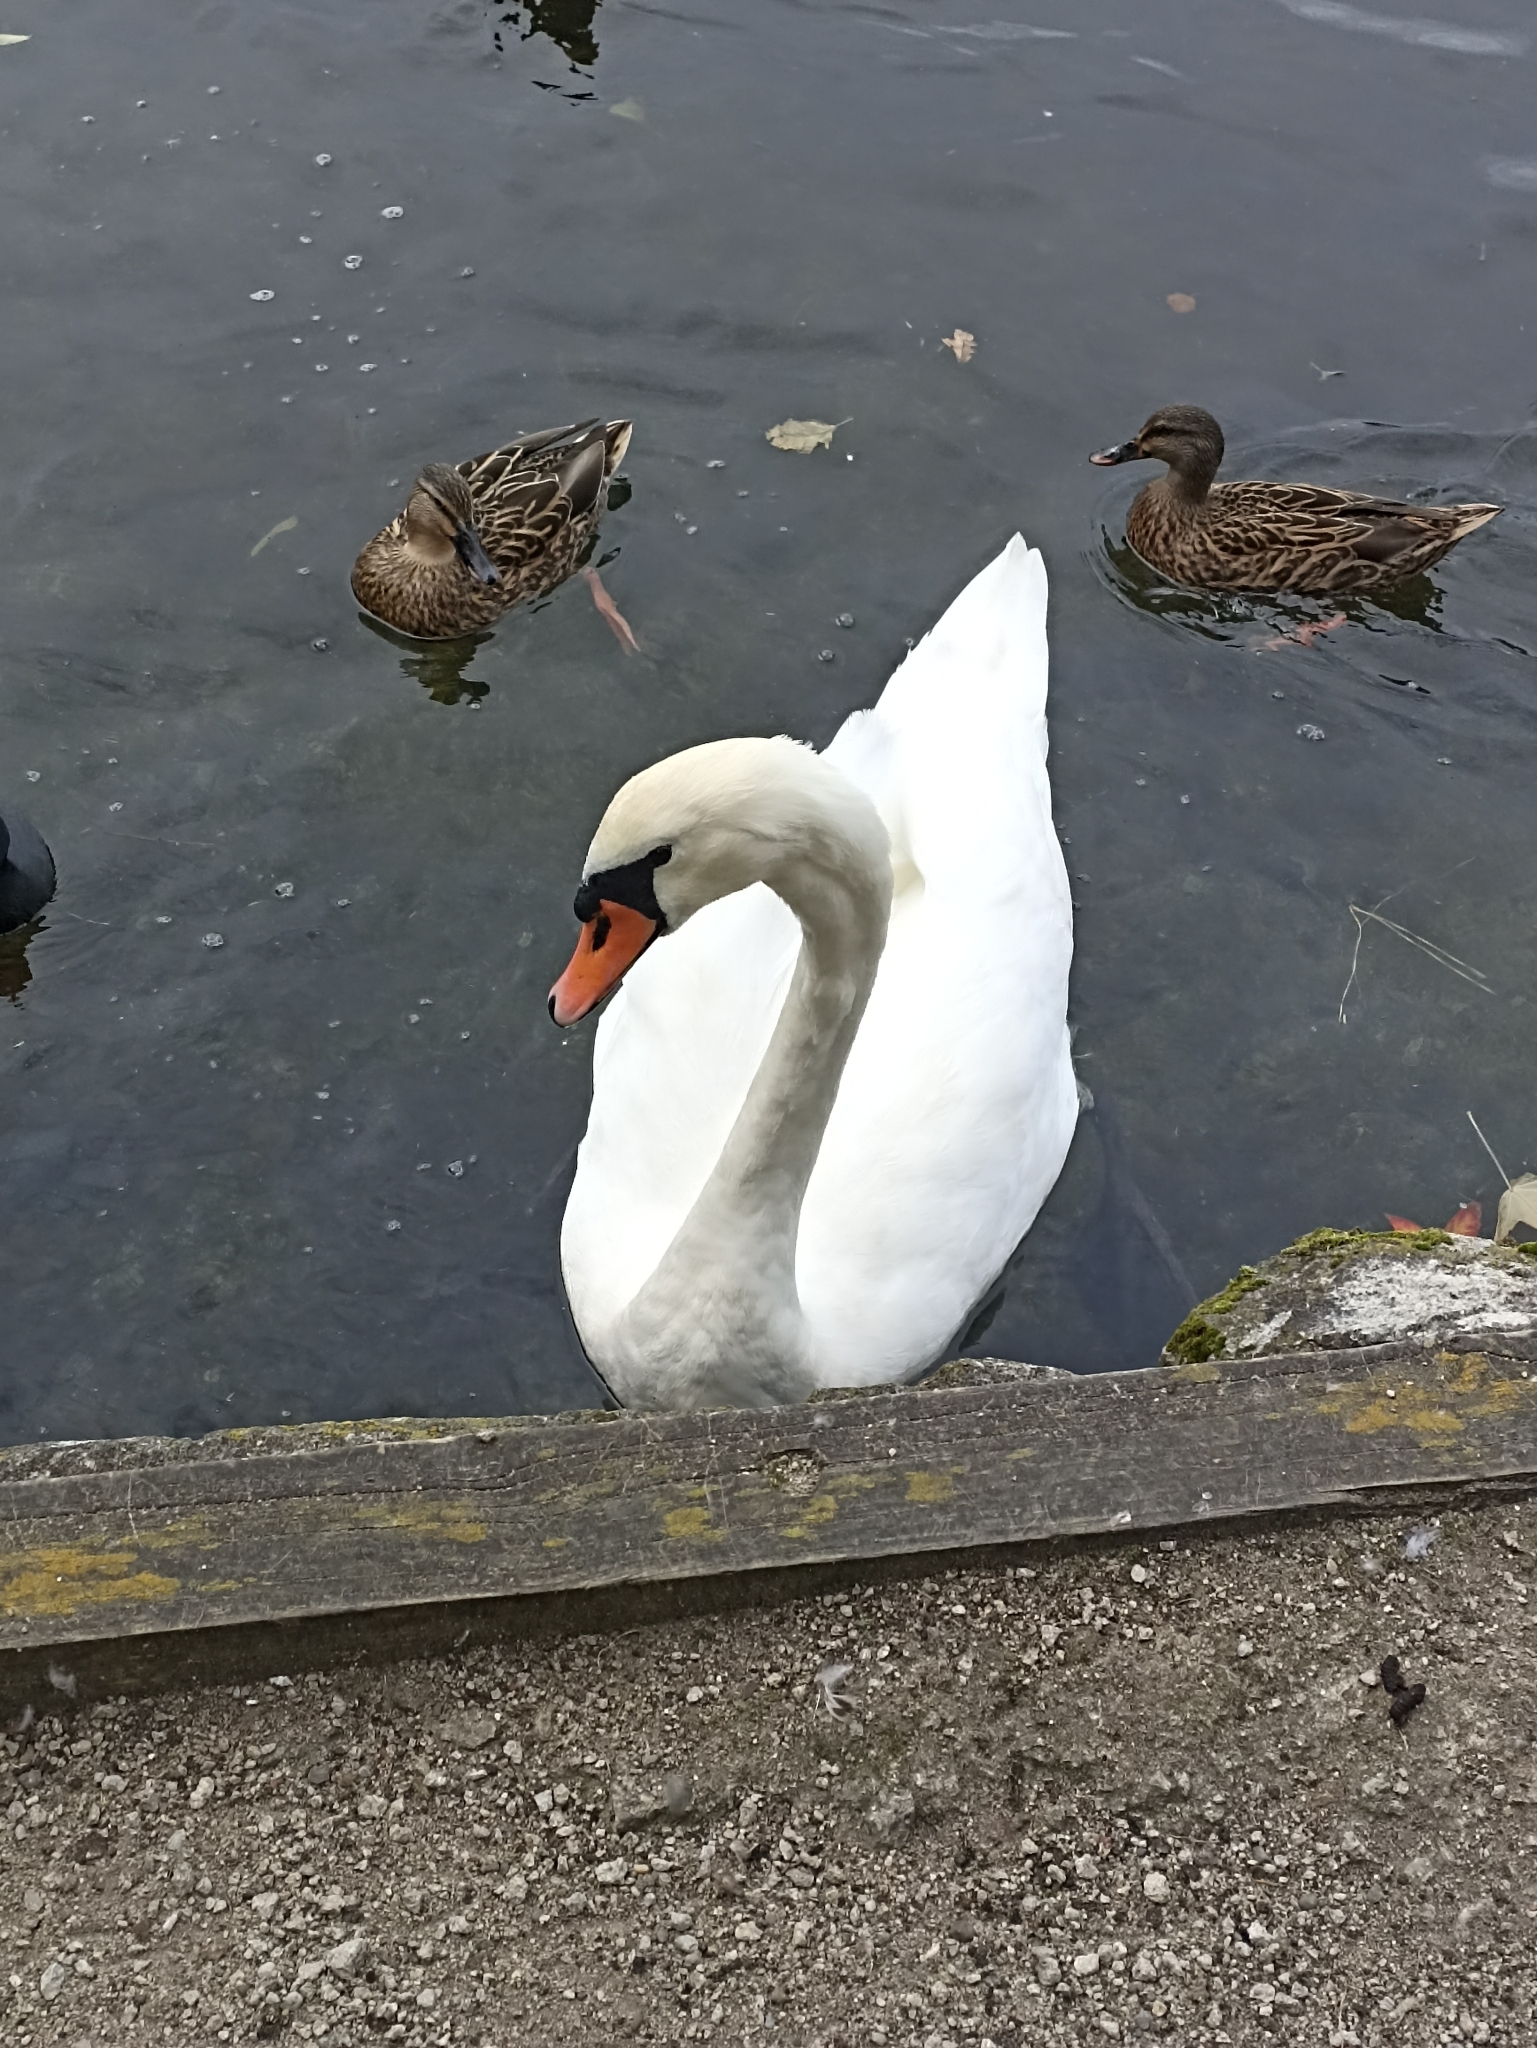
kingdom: Animalia
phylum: Chordata
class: Aves
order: Anseriformes
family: Anatidae
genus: Cygnus
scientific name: Cygnus olor
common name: Mute swan
